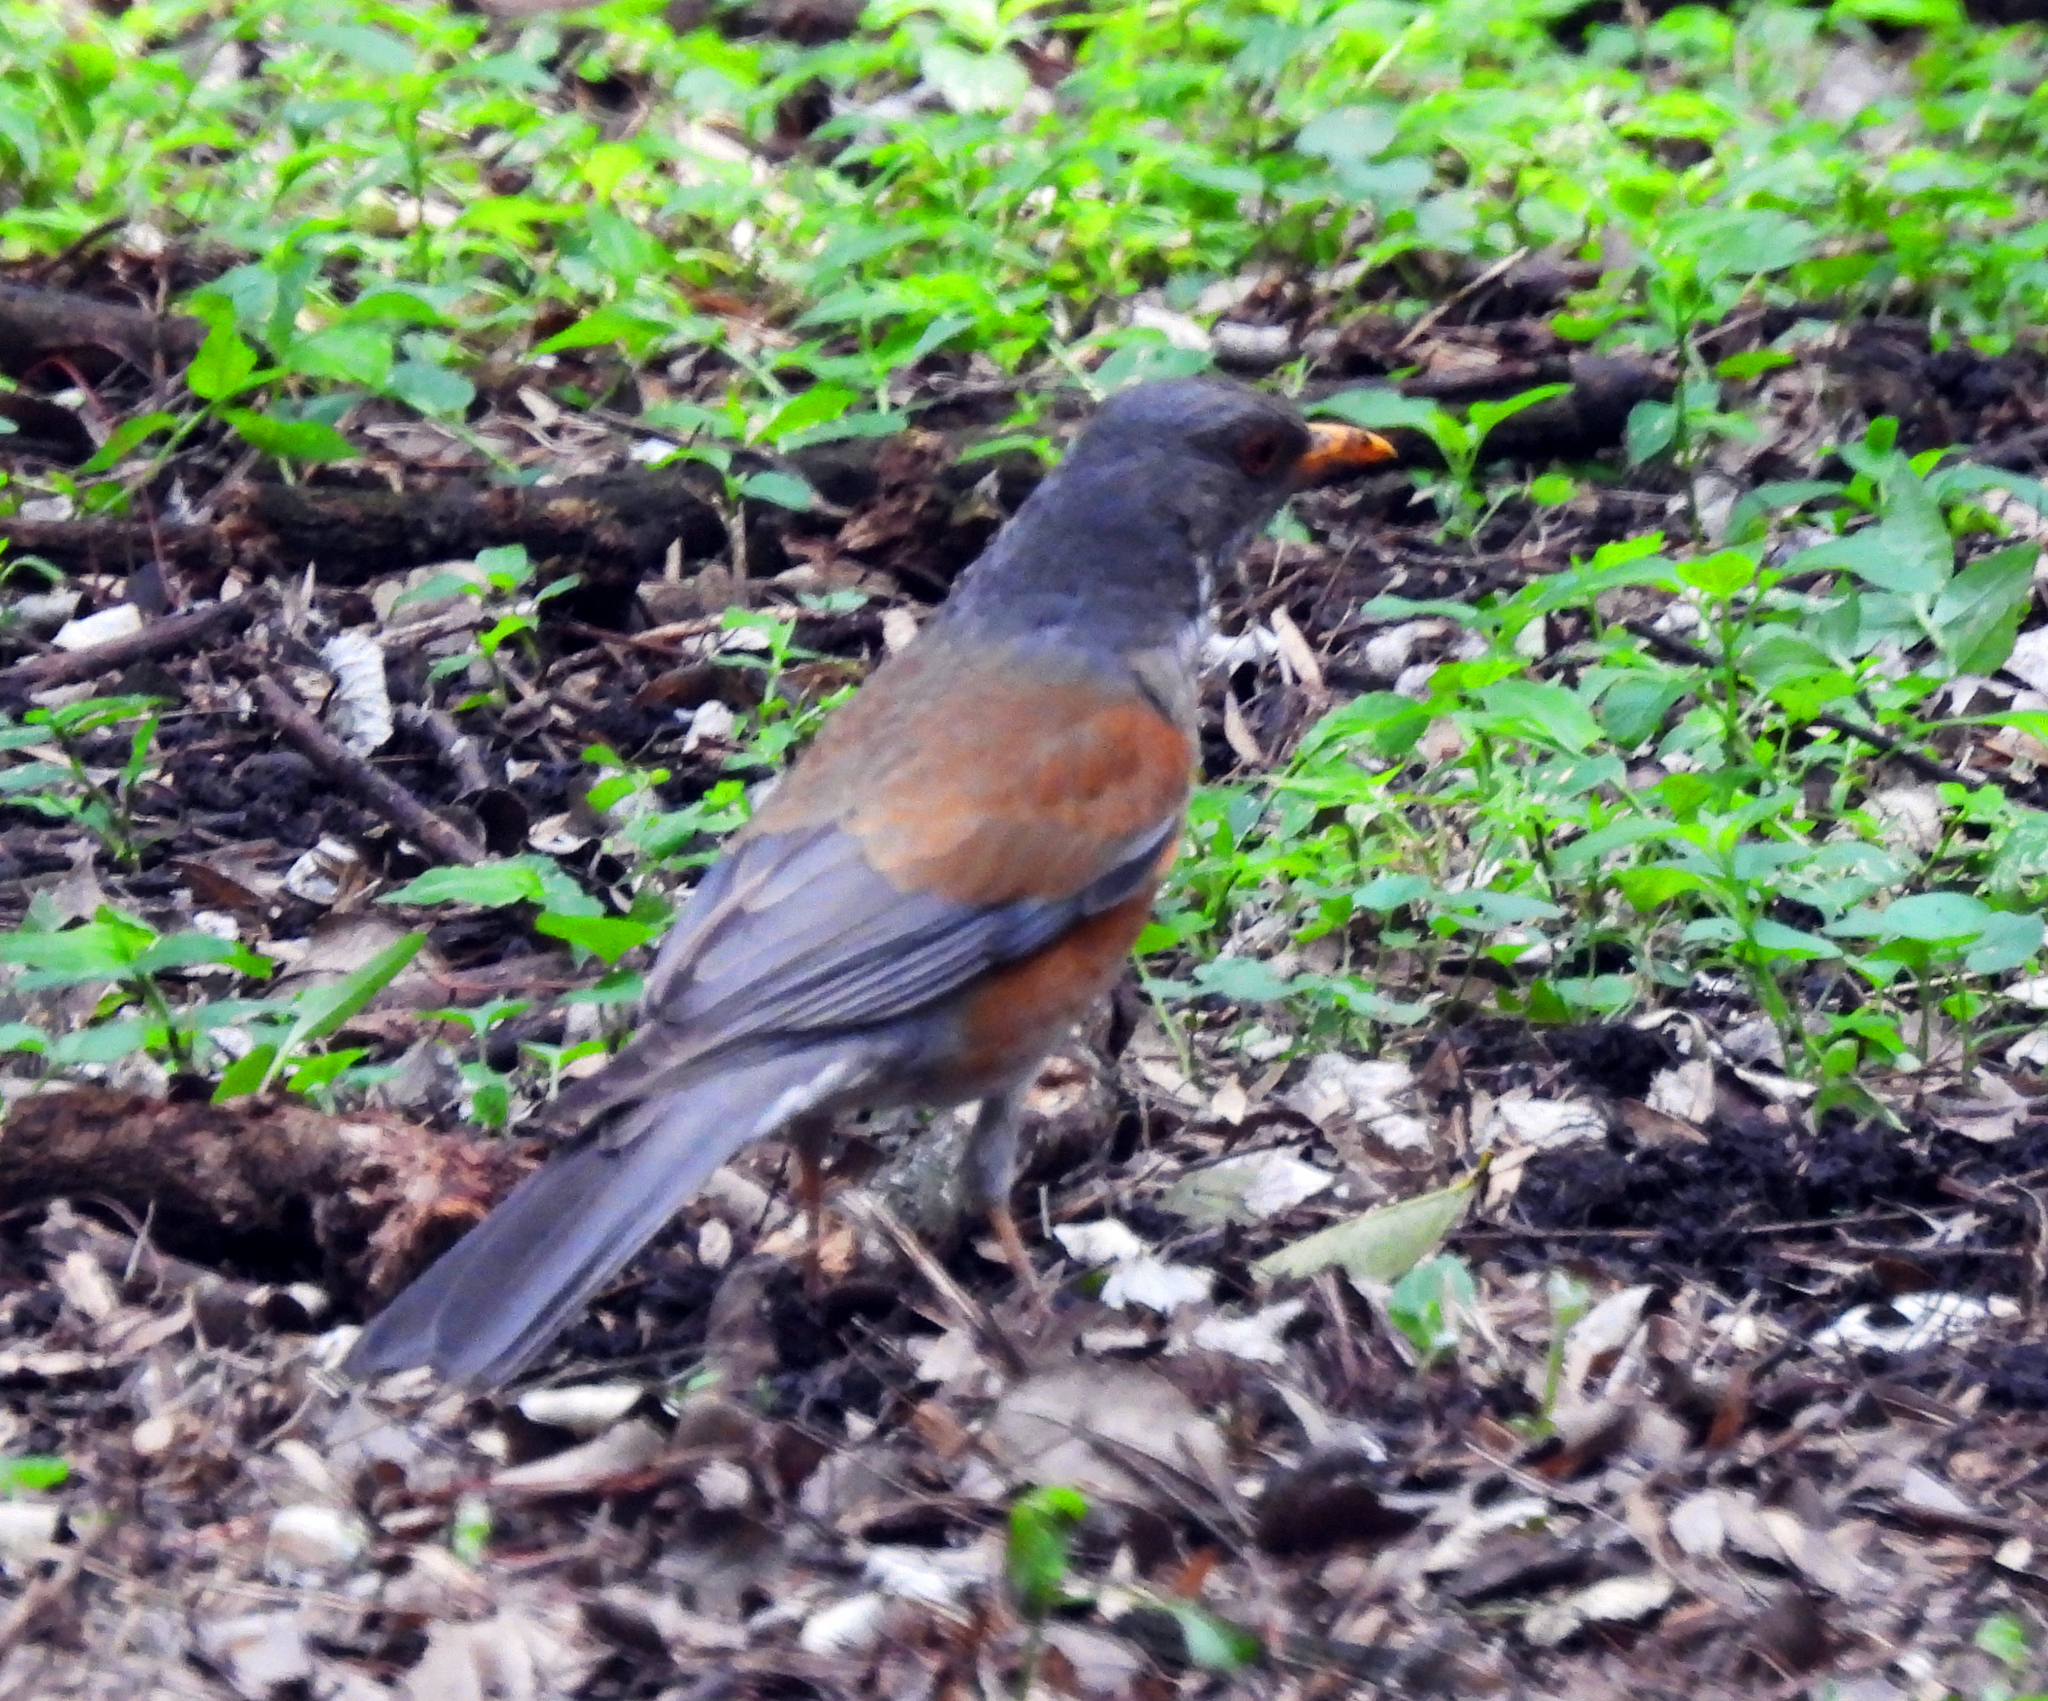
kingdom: Animalia
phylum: Chordata
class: Aves
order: Passeriformes
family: Turdidae
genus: Turdus
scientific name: Turdus rufopalliatus
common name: Rufous-backed robin
